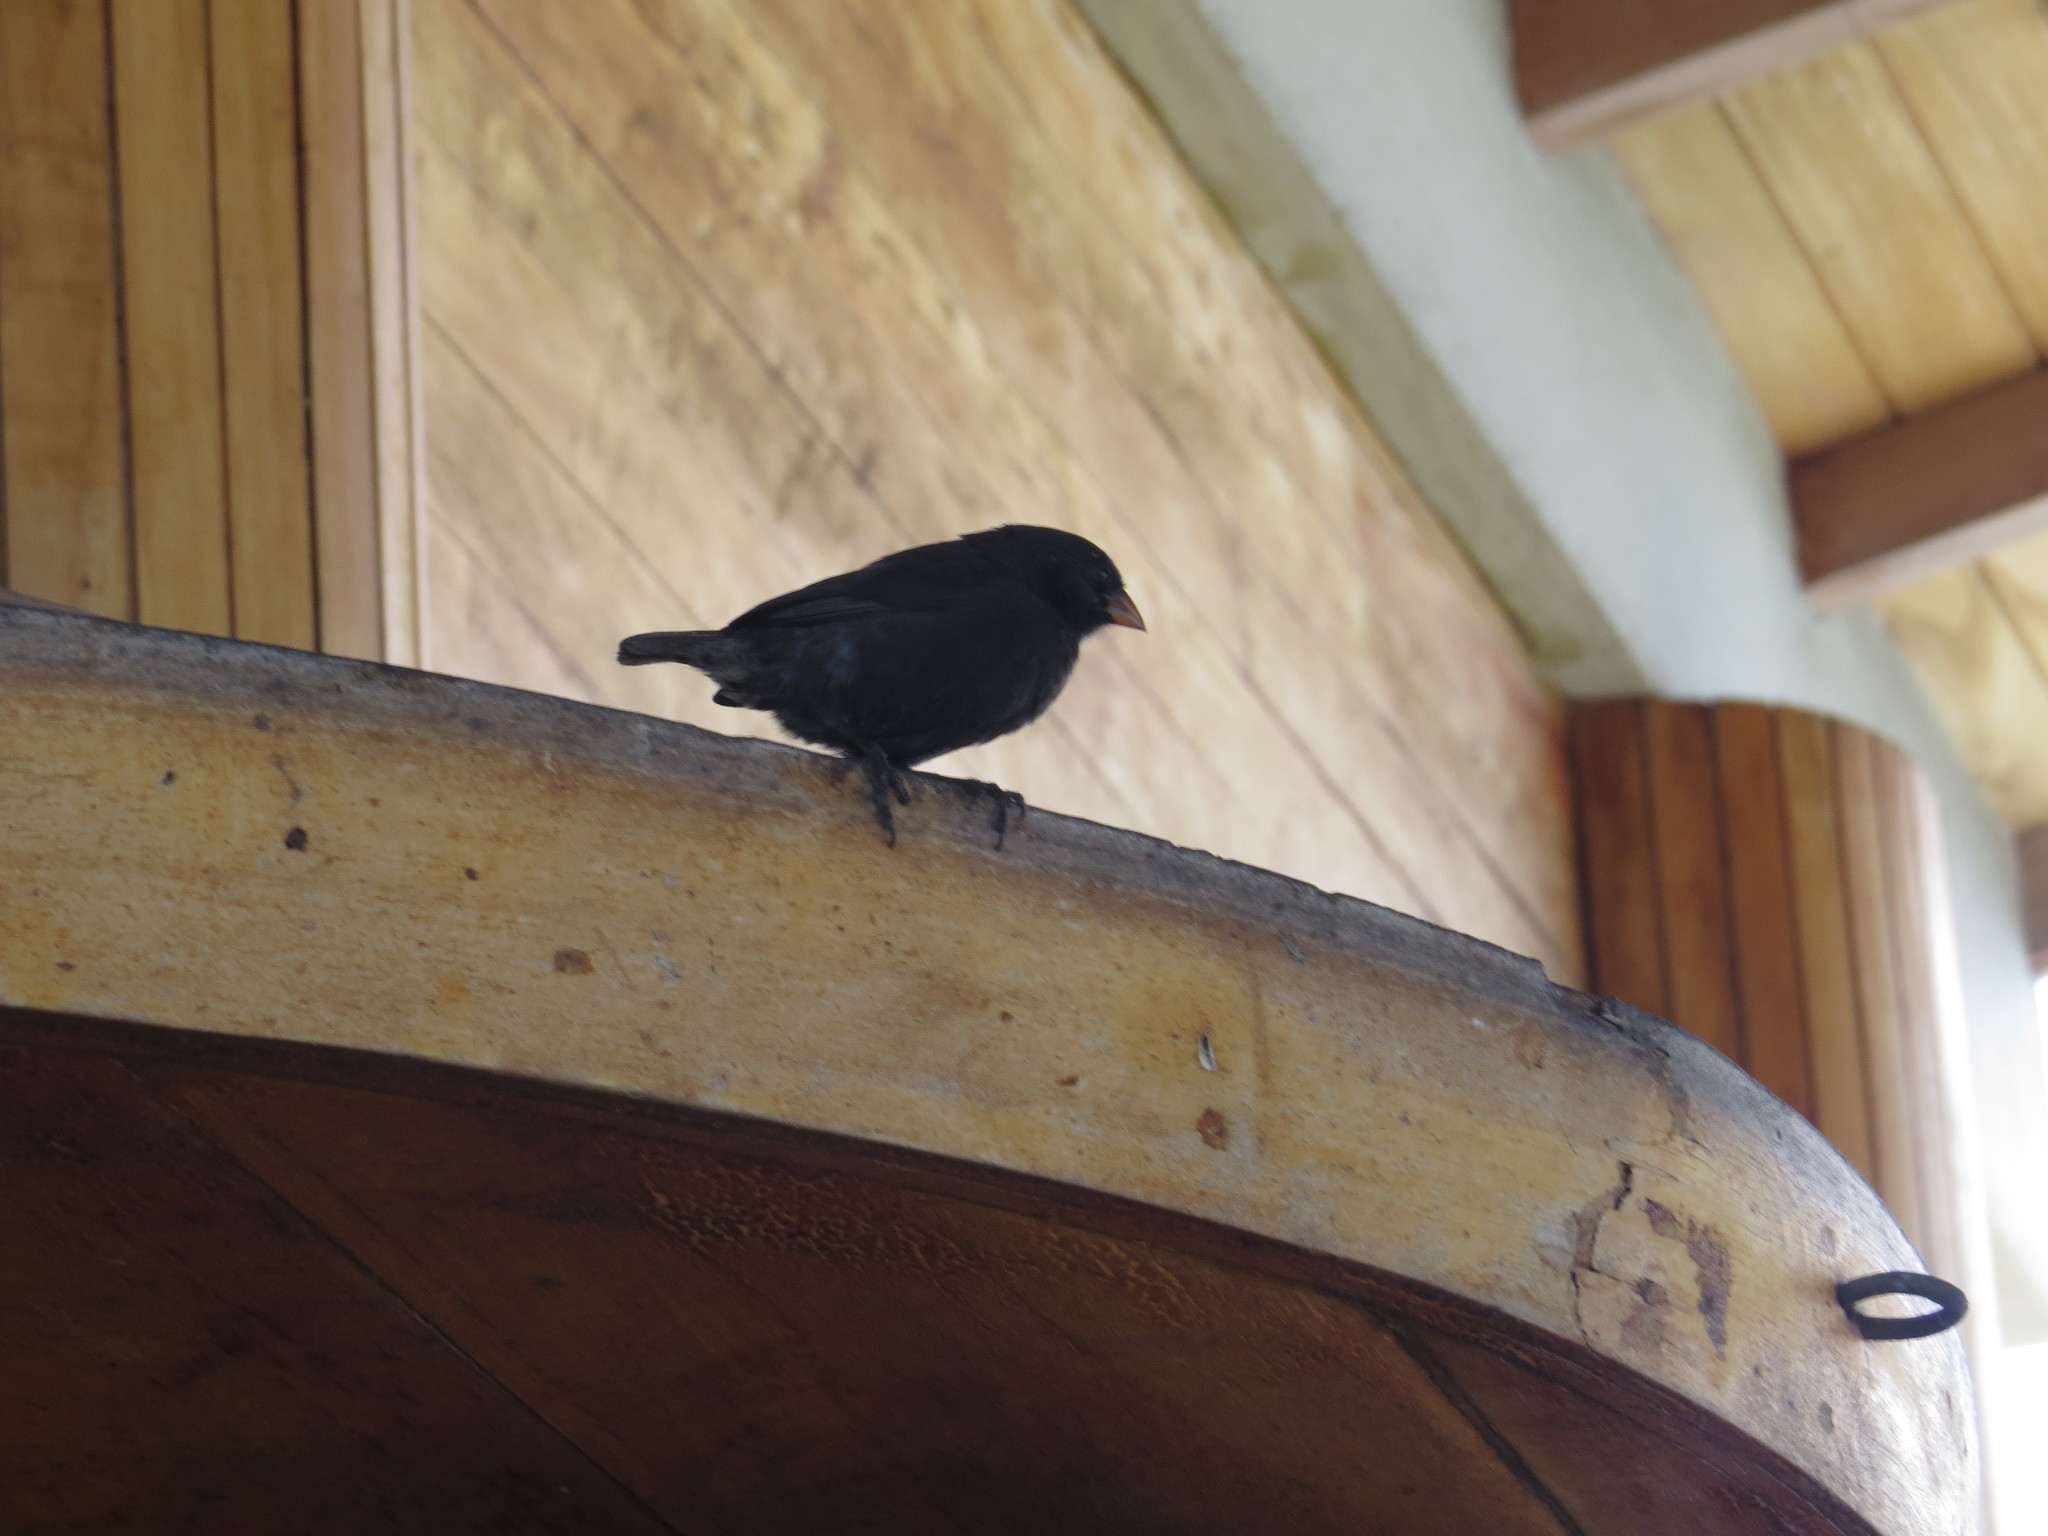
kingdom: Animalia
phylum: Chordata
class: Aves
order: Passeriformes
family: Thraupidae
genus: Geospiza
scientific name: Geospiza fuliginosa
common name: Small ground finch
